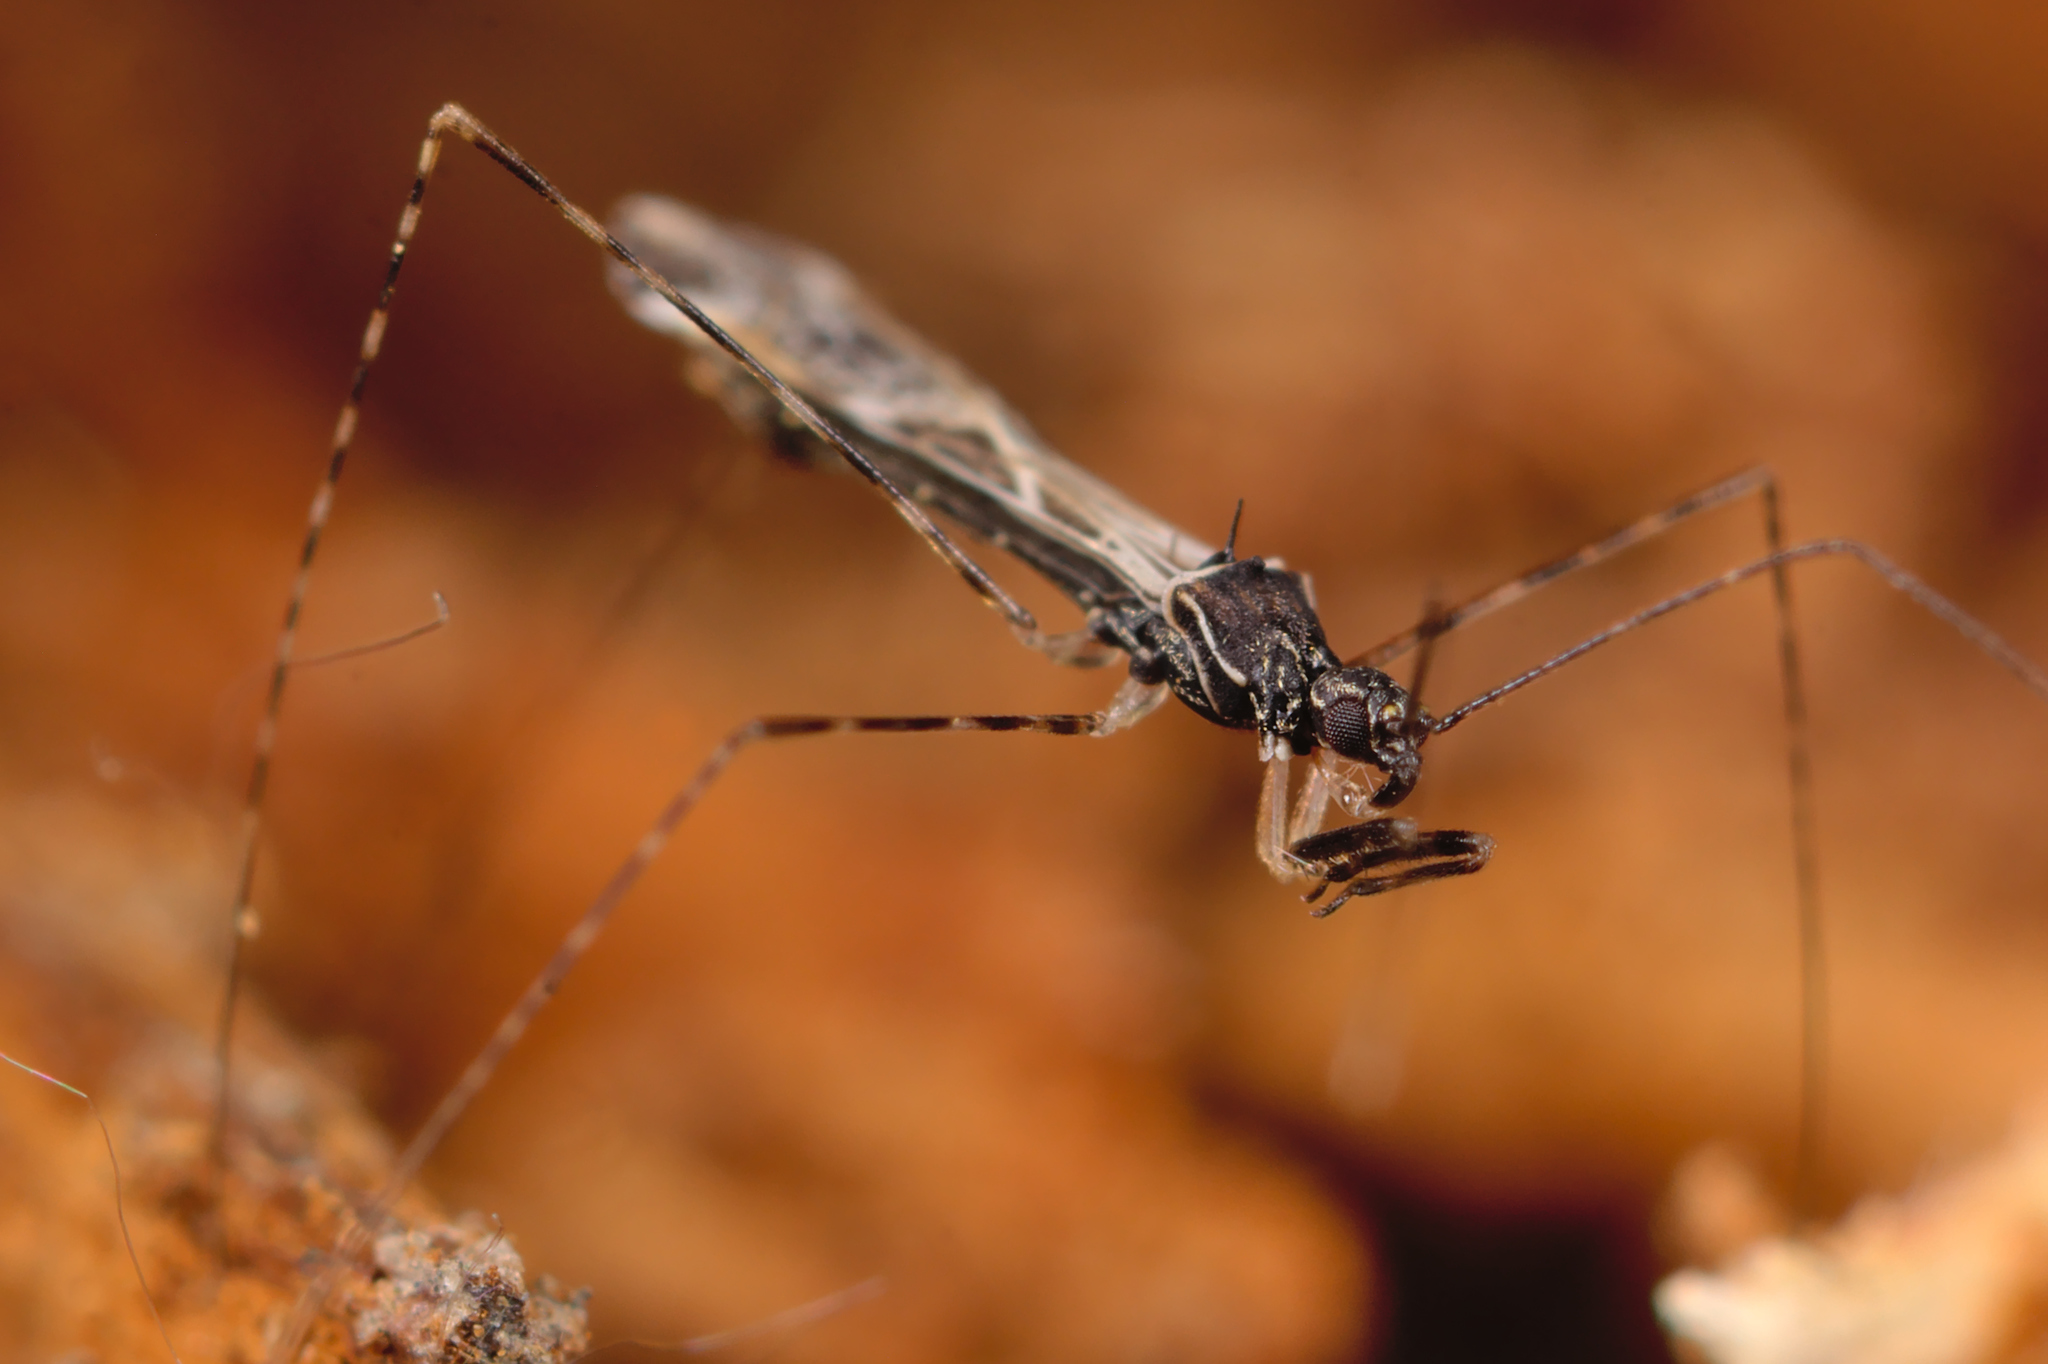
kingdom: Animalia
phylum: Arthropoda
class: Insecta
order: Hemiptera
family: Reduviidae
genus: Empicoris
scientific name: Empicoris baerensprungi
